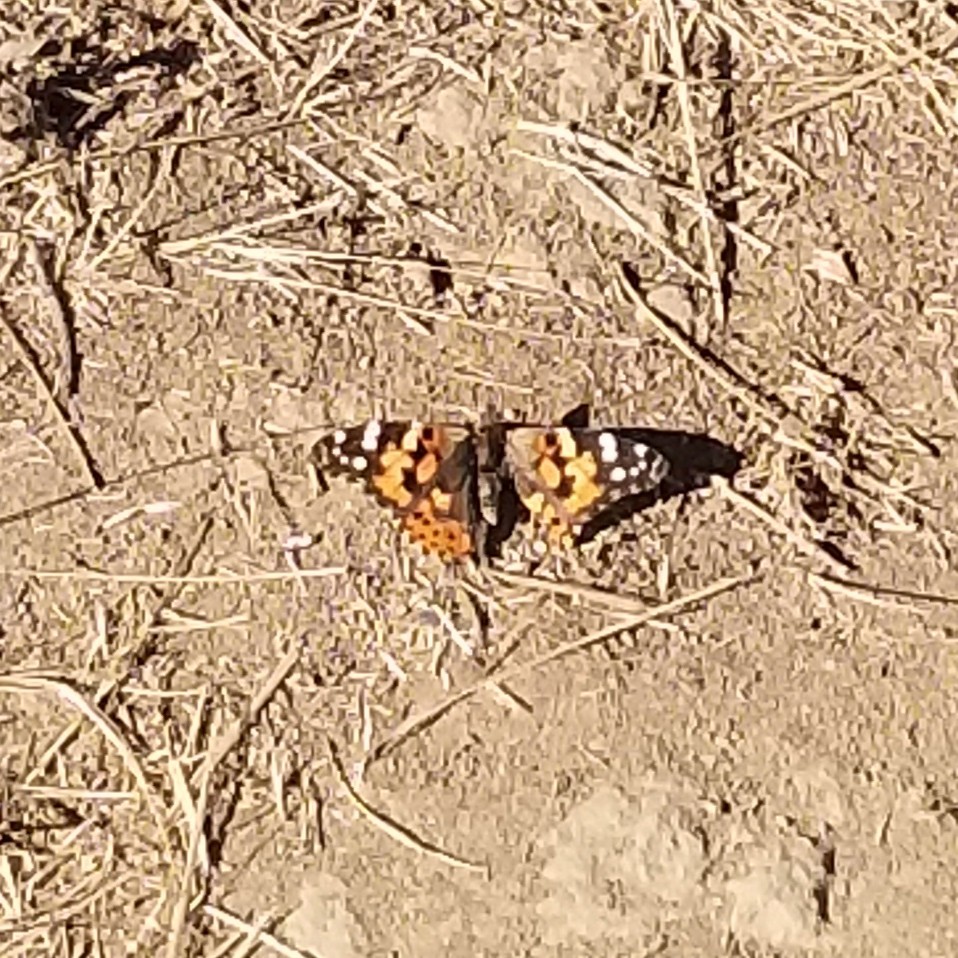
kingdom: Animalia
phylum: Arthropoda
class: Insecta
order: Lepidoptera
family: Nymphalidae
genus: Vanessa
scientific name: Vanessa cardui
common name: Painted lady
